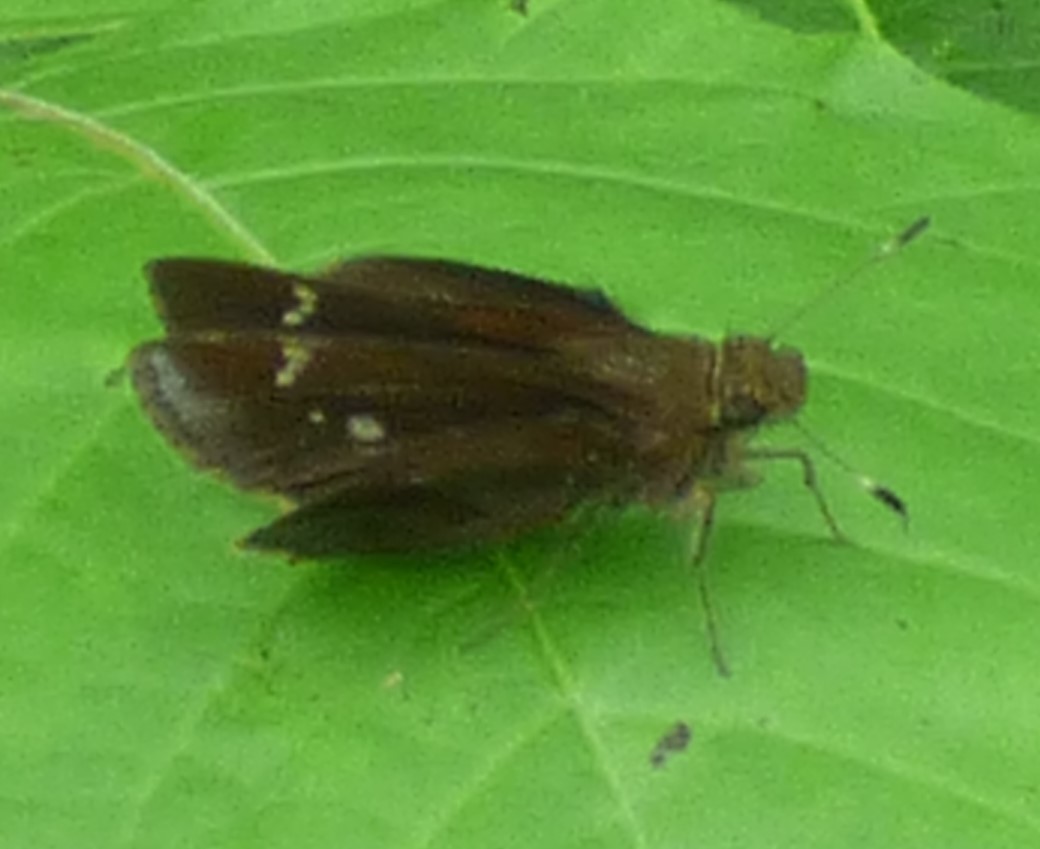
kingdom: Animalia
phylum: Arthropoda
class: Insecta
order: Lepidoptera
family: Hesperiidae
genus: Lerema
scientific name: Lerema accius
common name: Clouded skipper
